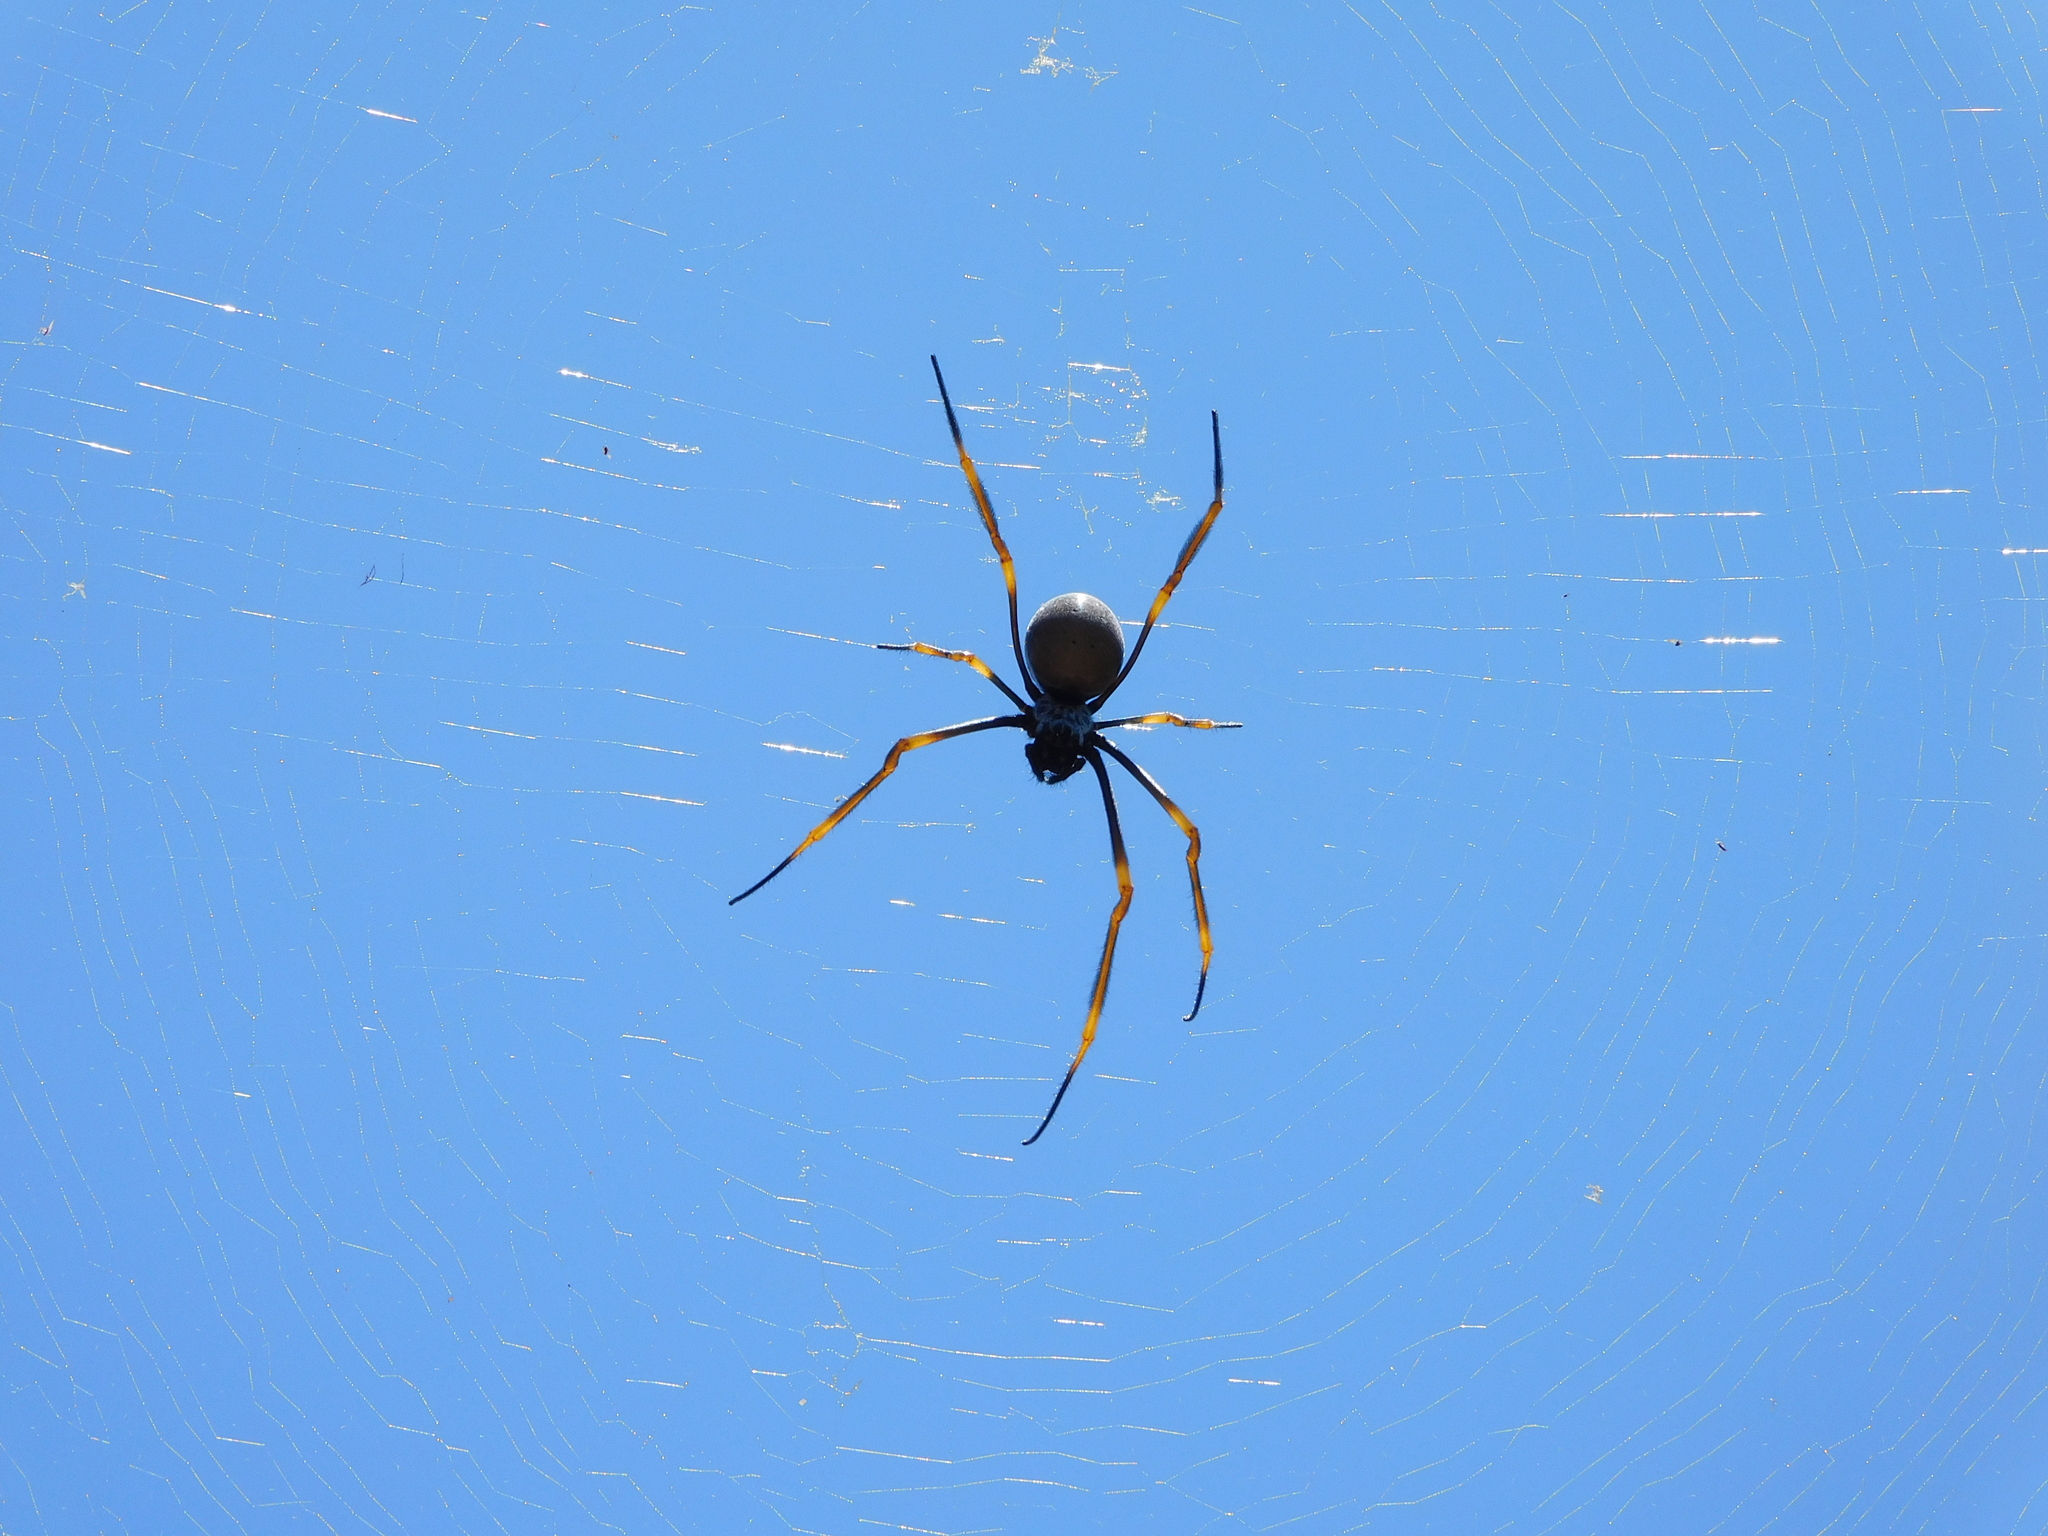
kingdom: Animalia
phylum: Arthropoda
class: Arachnida
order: Araneae
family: Araneidae
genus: Trichonephila
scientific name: Trichonephila plumipes
